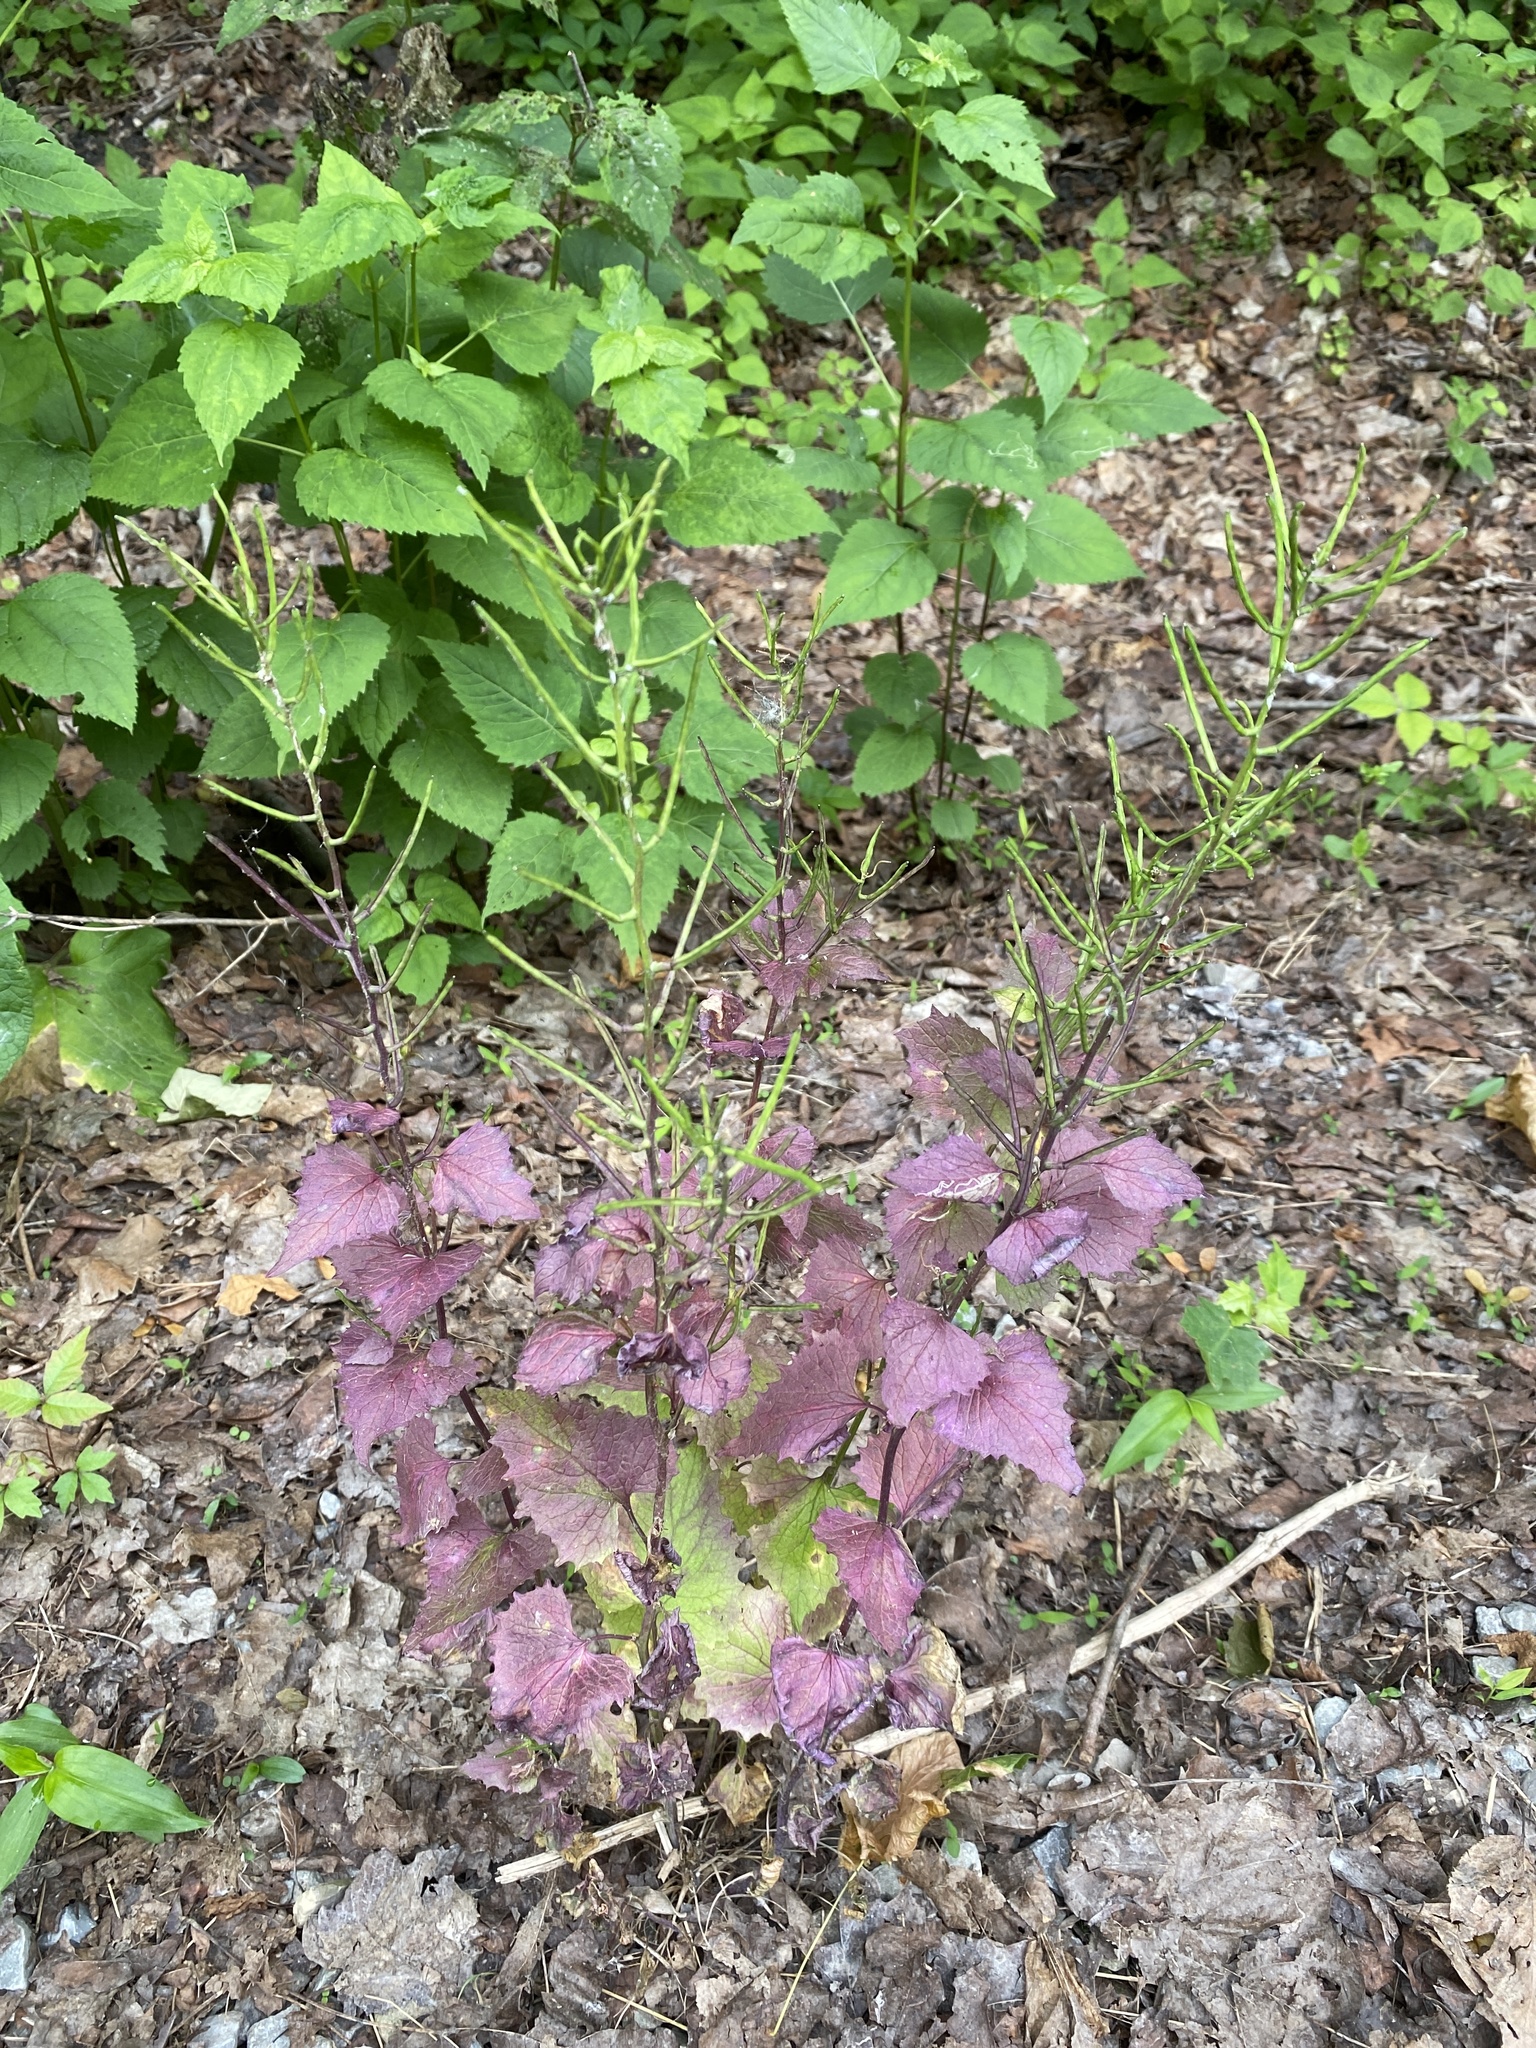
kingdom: Plantae
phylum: Tracheophyta
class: Magnoliopsida
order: Brassicales
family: Brassicaceae
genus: Alliaria
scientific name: Alliaria petiolata
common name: Garlic mustard
